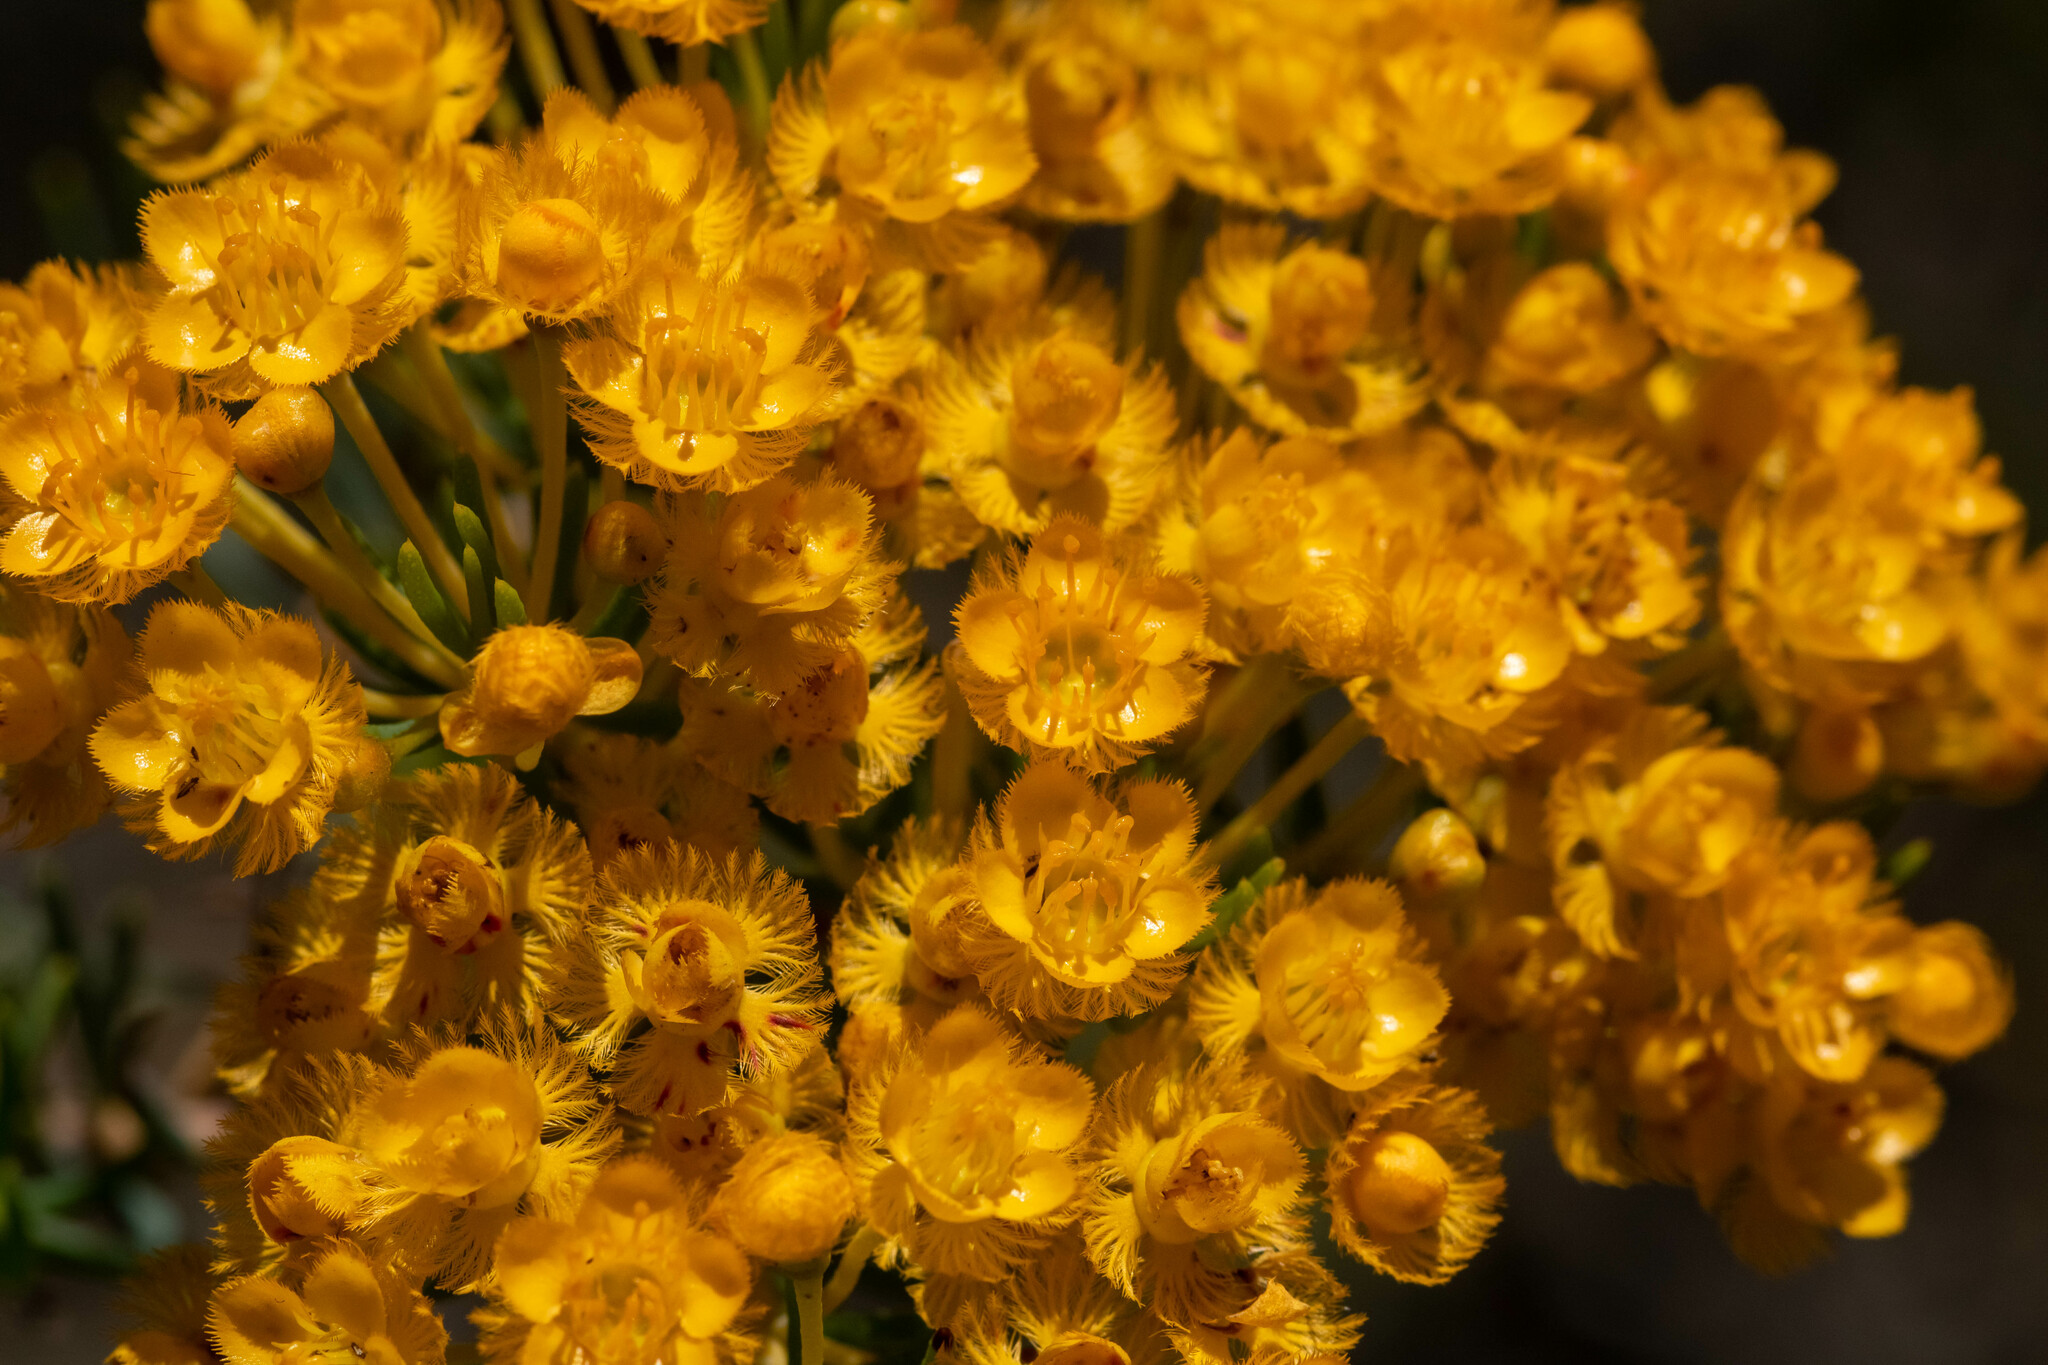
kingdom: Plantae
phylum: Tracheophyta
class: Magnoliopsida
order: Myrtales
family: Myrtaceae
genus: Verticordia
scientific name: Verticordia aurea
